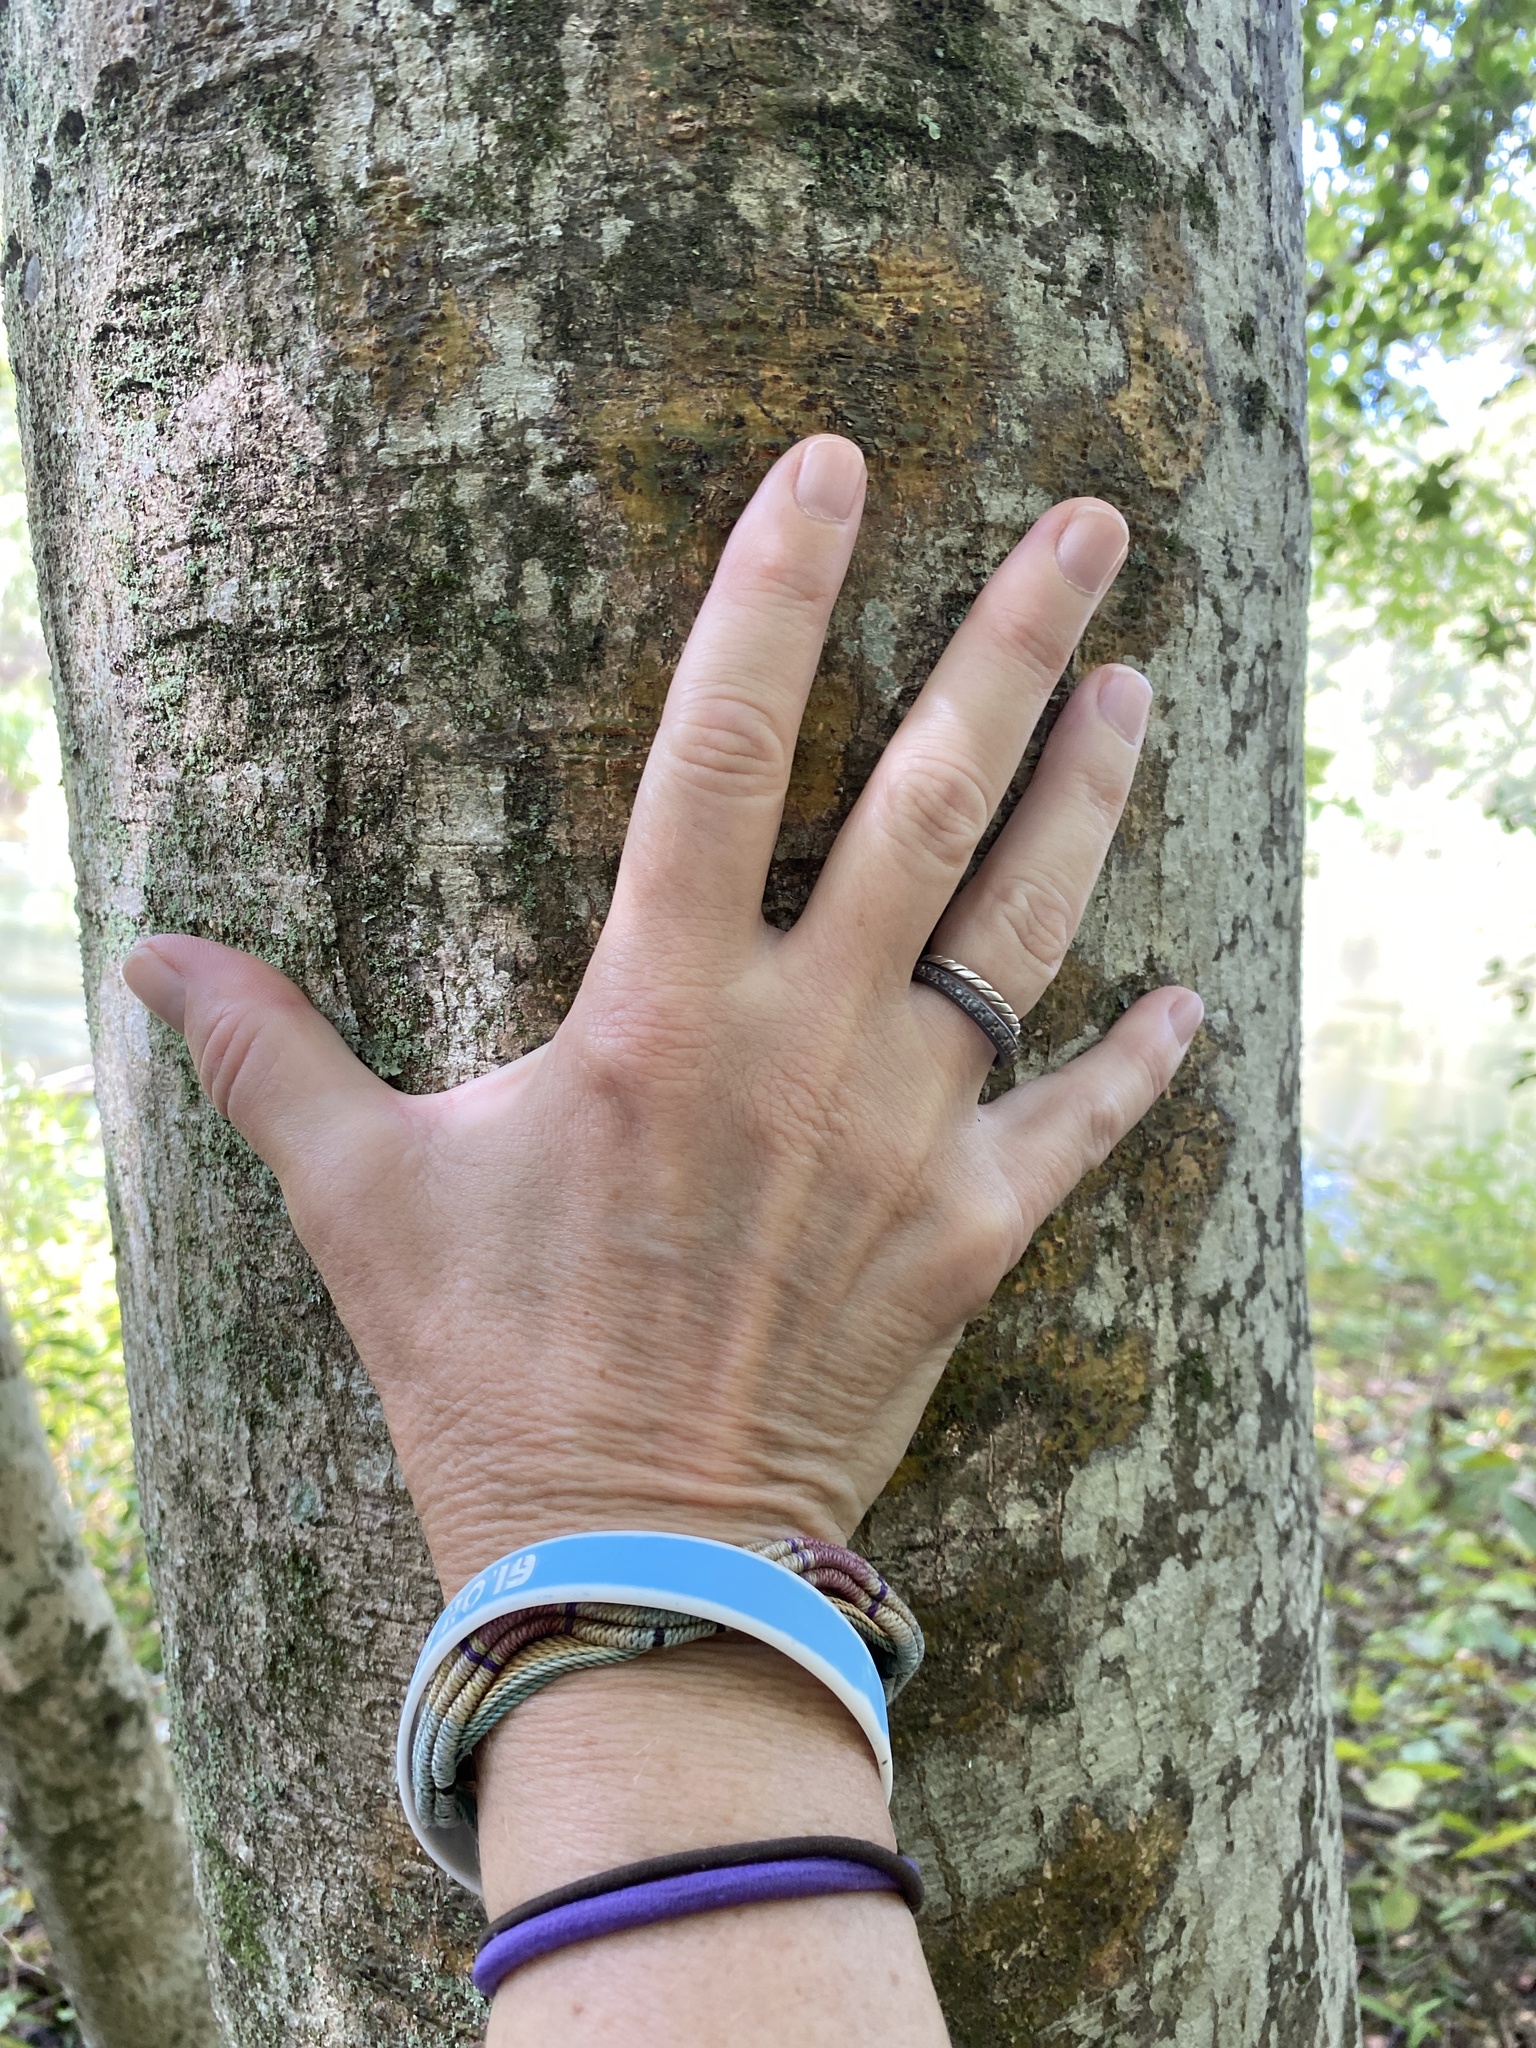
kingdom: Plantae
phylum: Tracheophyta
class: Magnoliopsida
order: Aquifoliales
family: Aquifoliaceae
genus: Ilex
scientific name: Ilex opaca
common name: American holly
